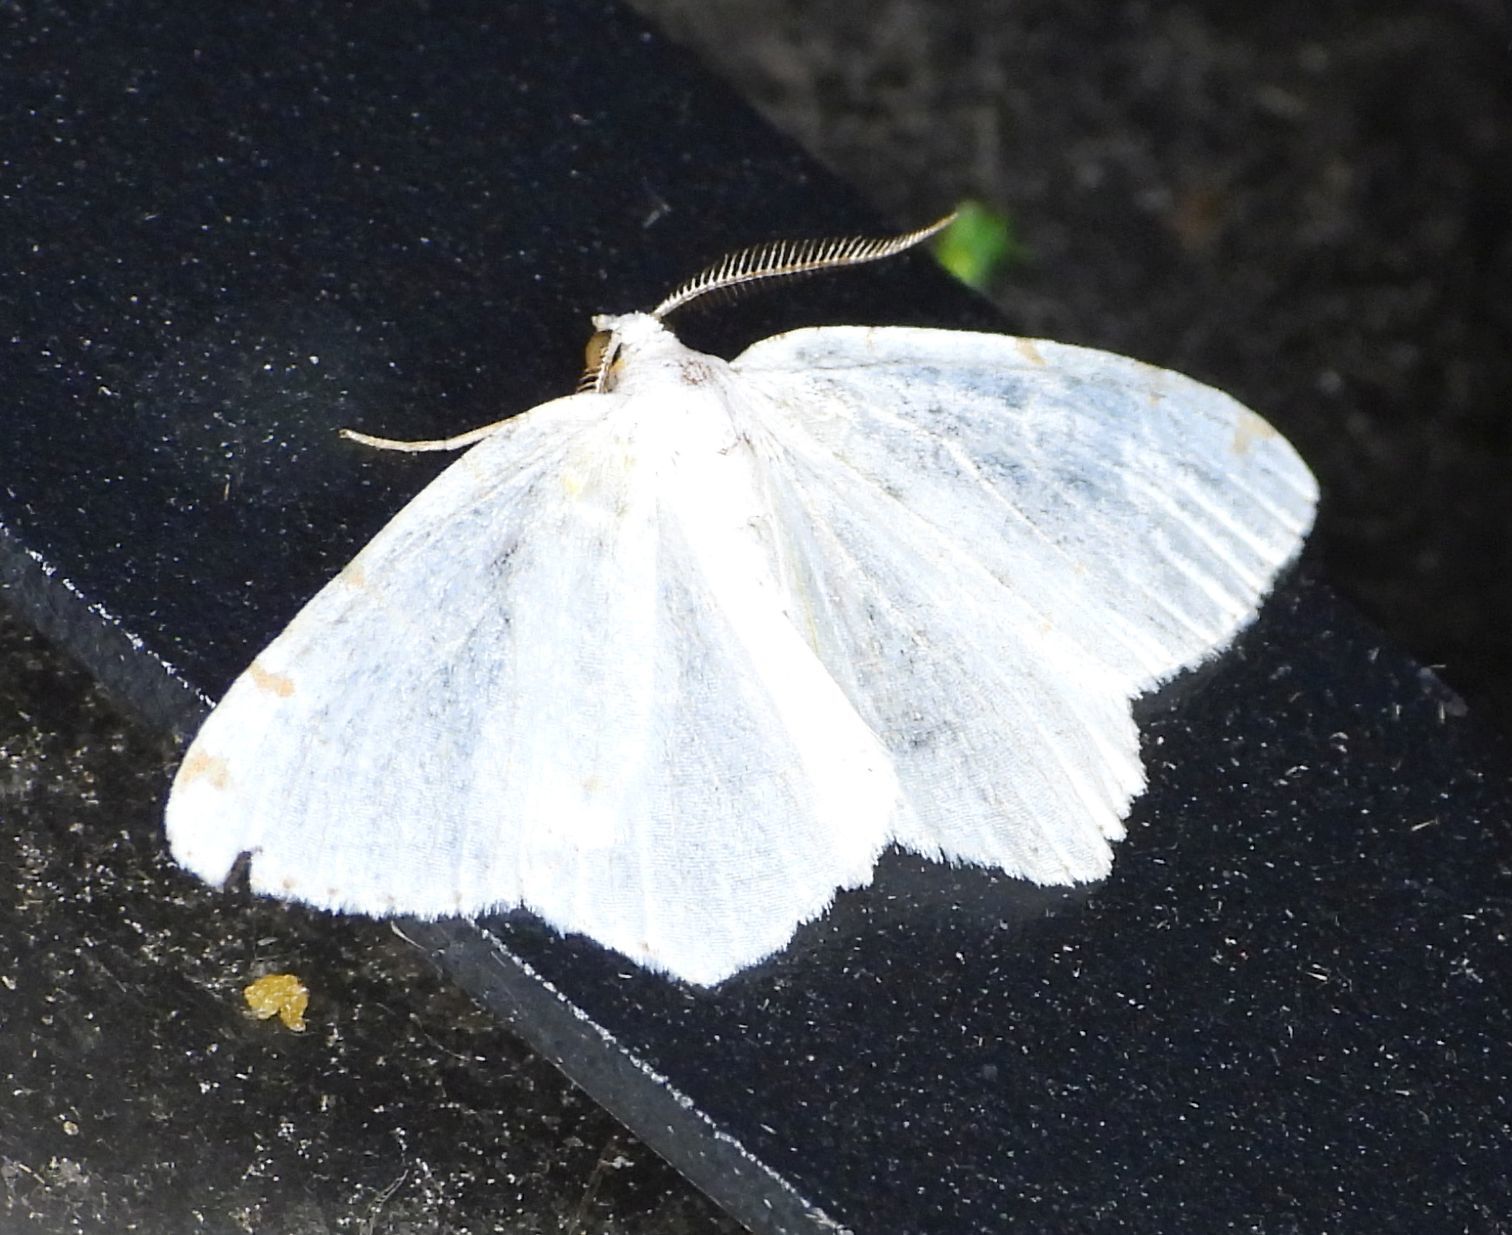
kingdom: Animalia
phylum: Arthropoda
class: Insecta
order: Lepidoptera
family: Geometridae
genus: Macaria
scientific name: Macaria pustularia
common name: Lesser maple spanworm moth
